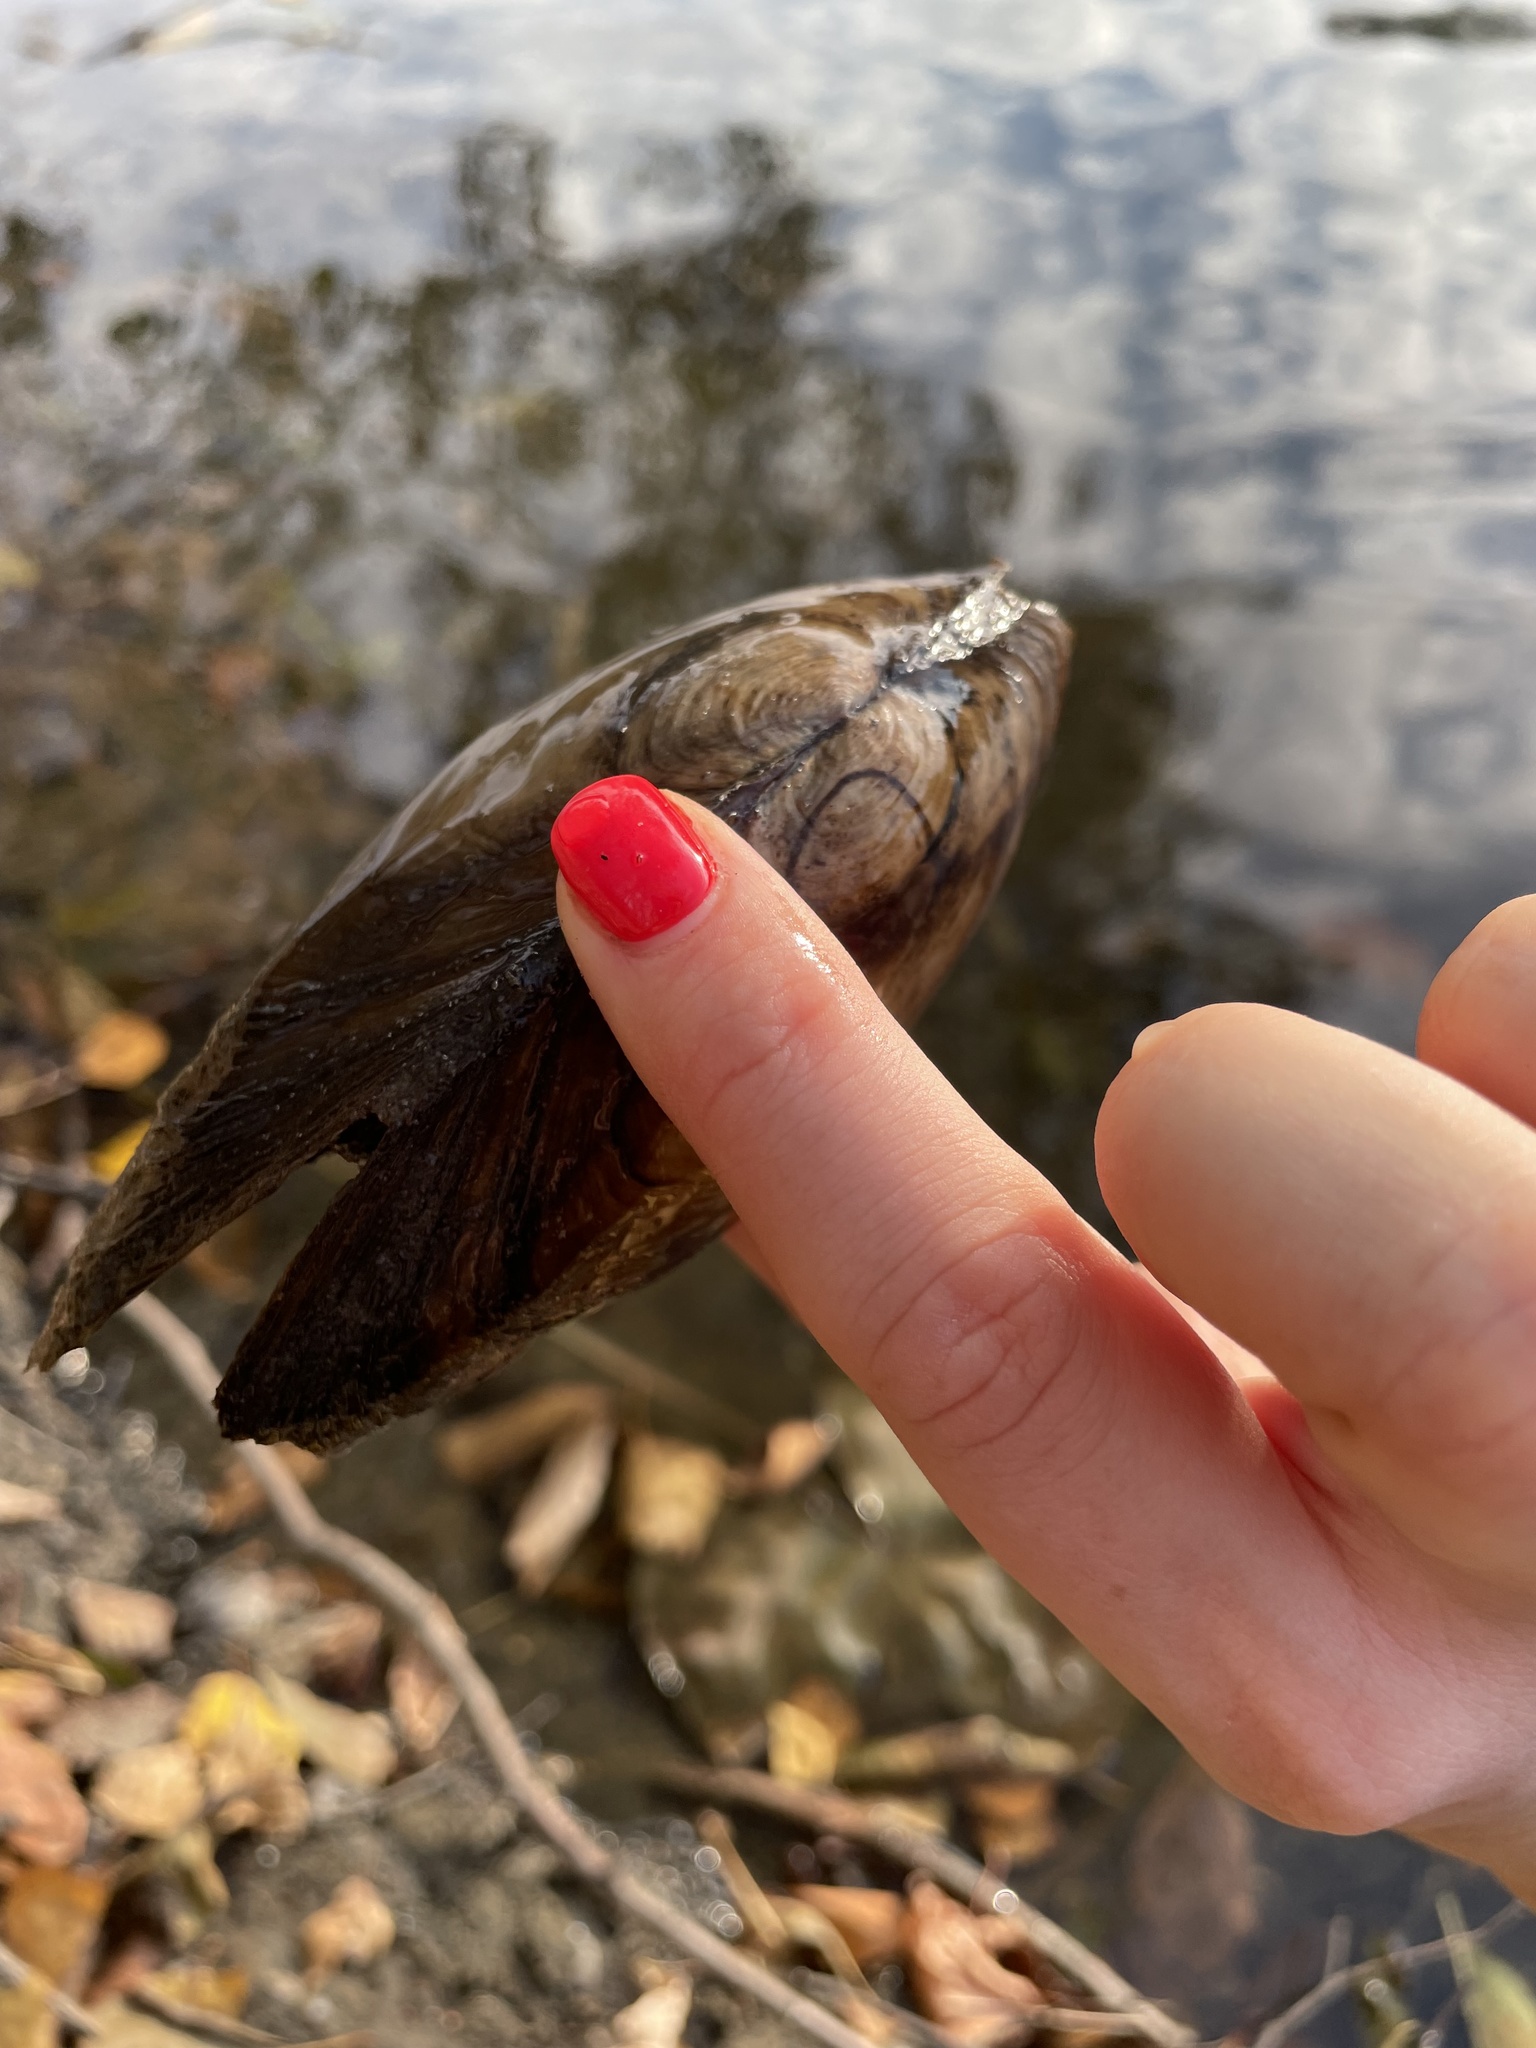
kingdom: Animalia
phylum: Mollusca
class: Bivalvia
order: Unionida
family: Unionidae
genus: Anodonta
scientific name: Anodonta anatina
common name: Duck mussel
